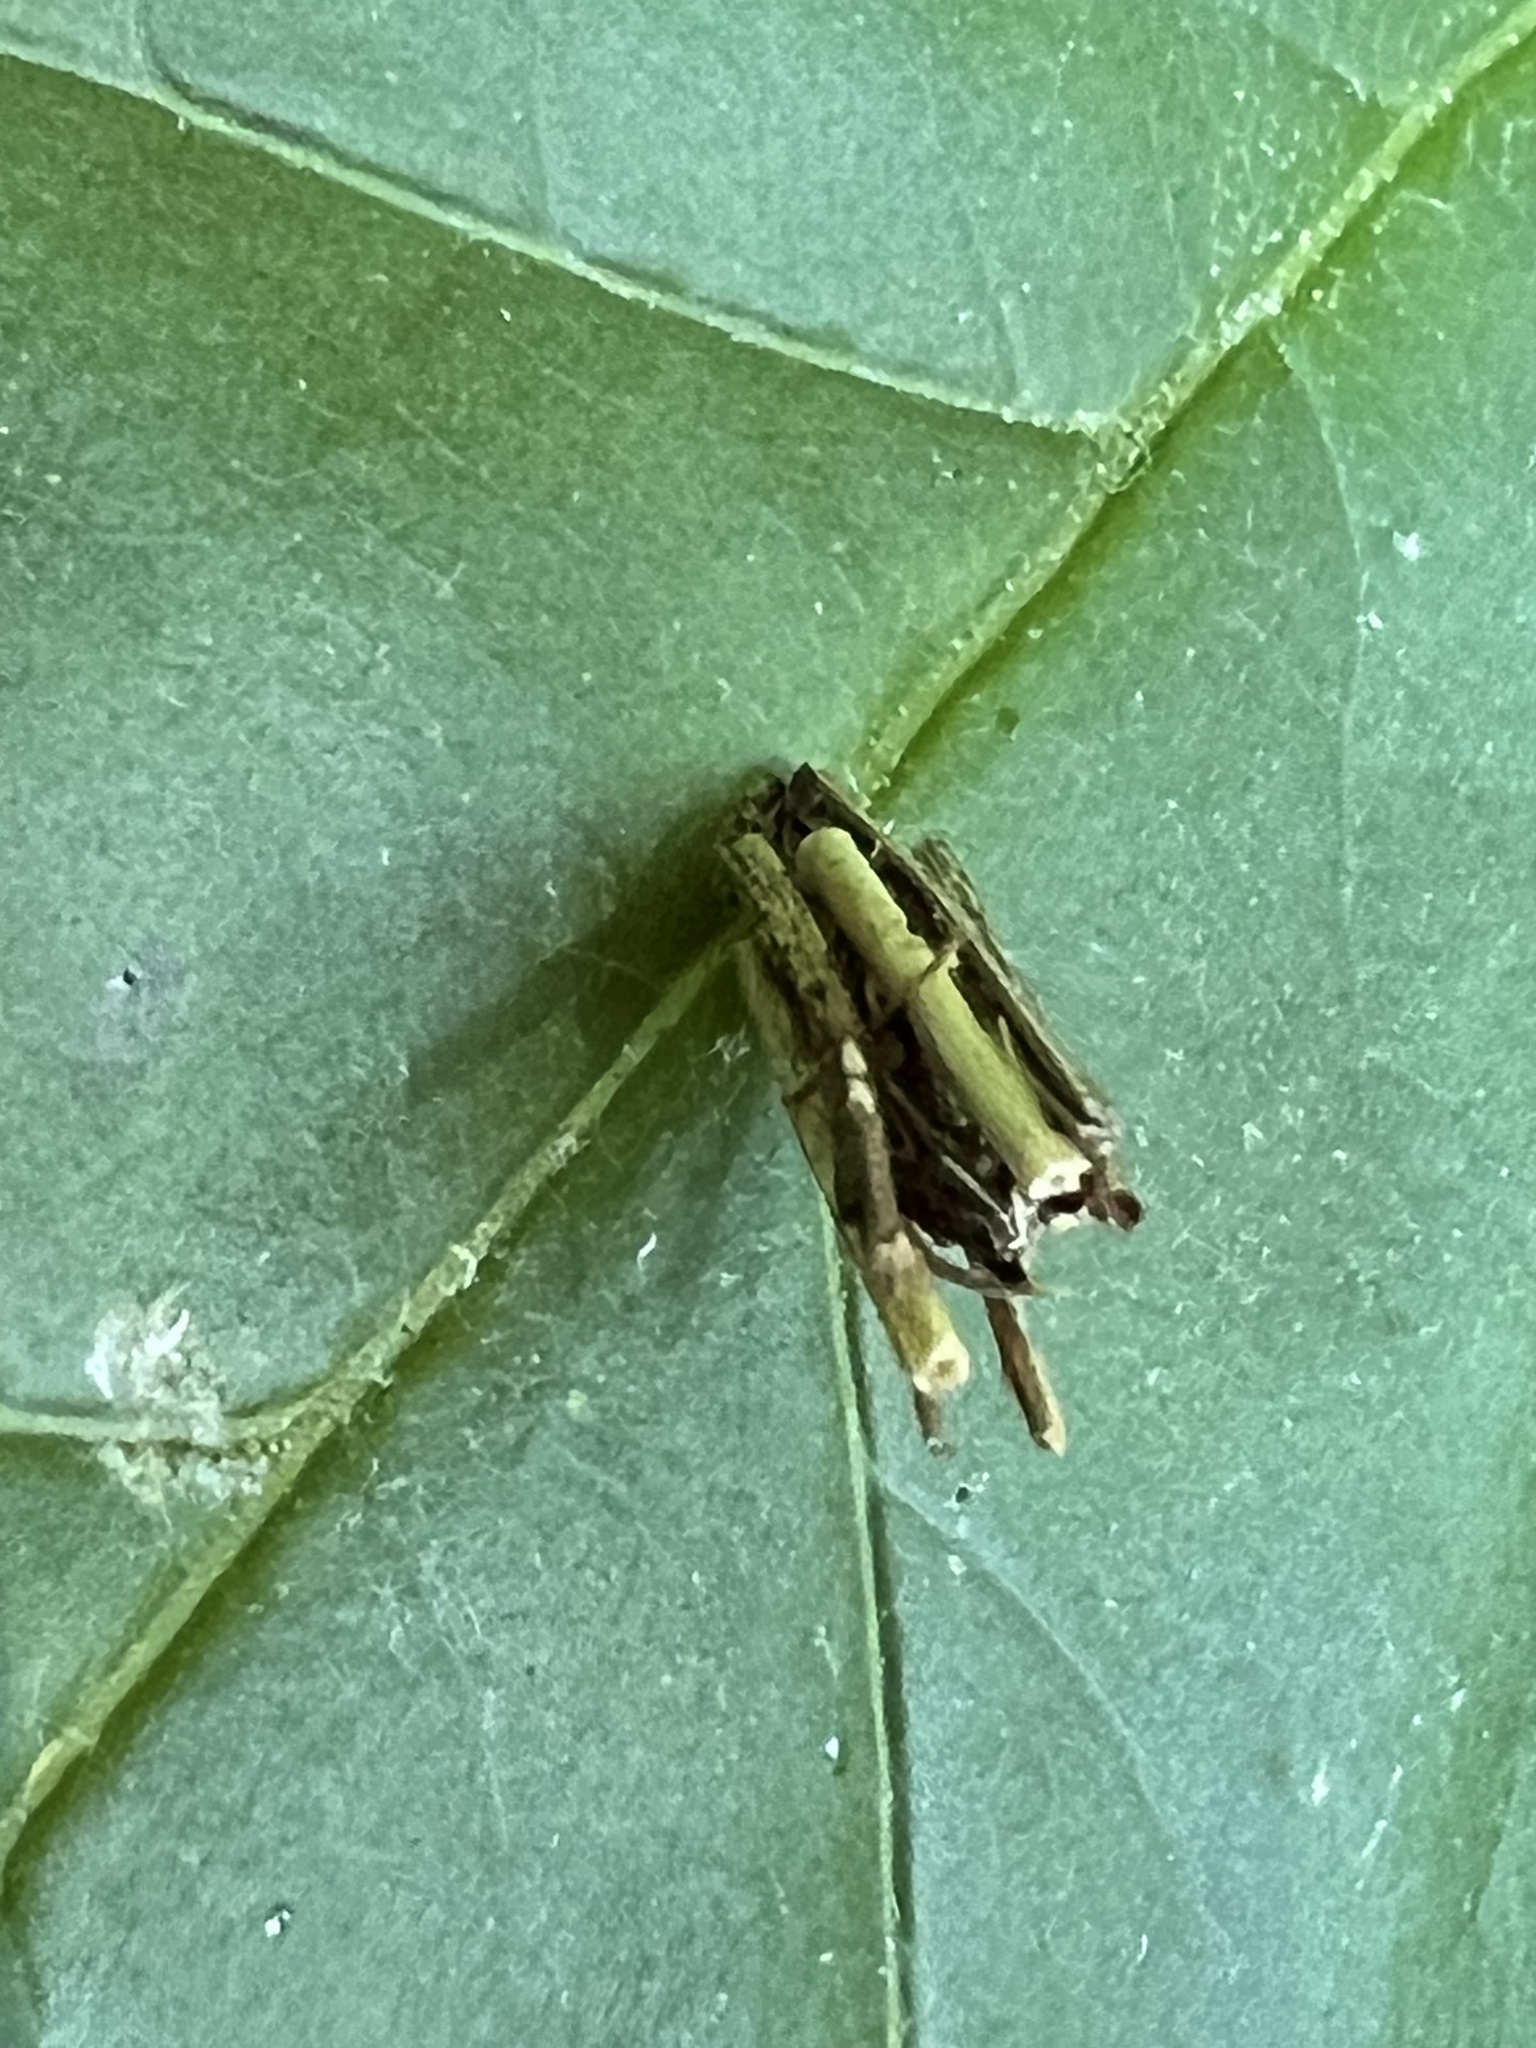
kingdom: Animalia
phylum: Arthropoda
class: Insecta
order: Lepidoptera
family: Psychidae
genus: Psyche
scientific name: Psyche casta
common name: Common sweep
